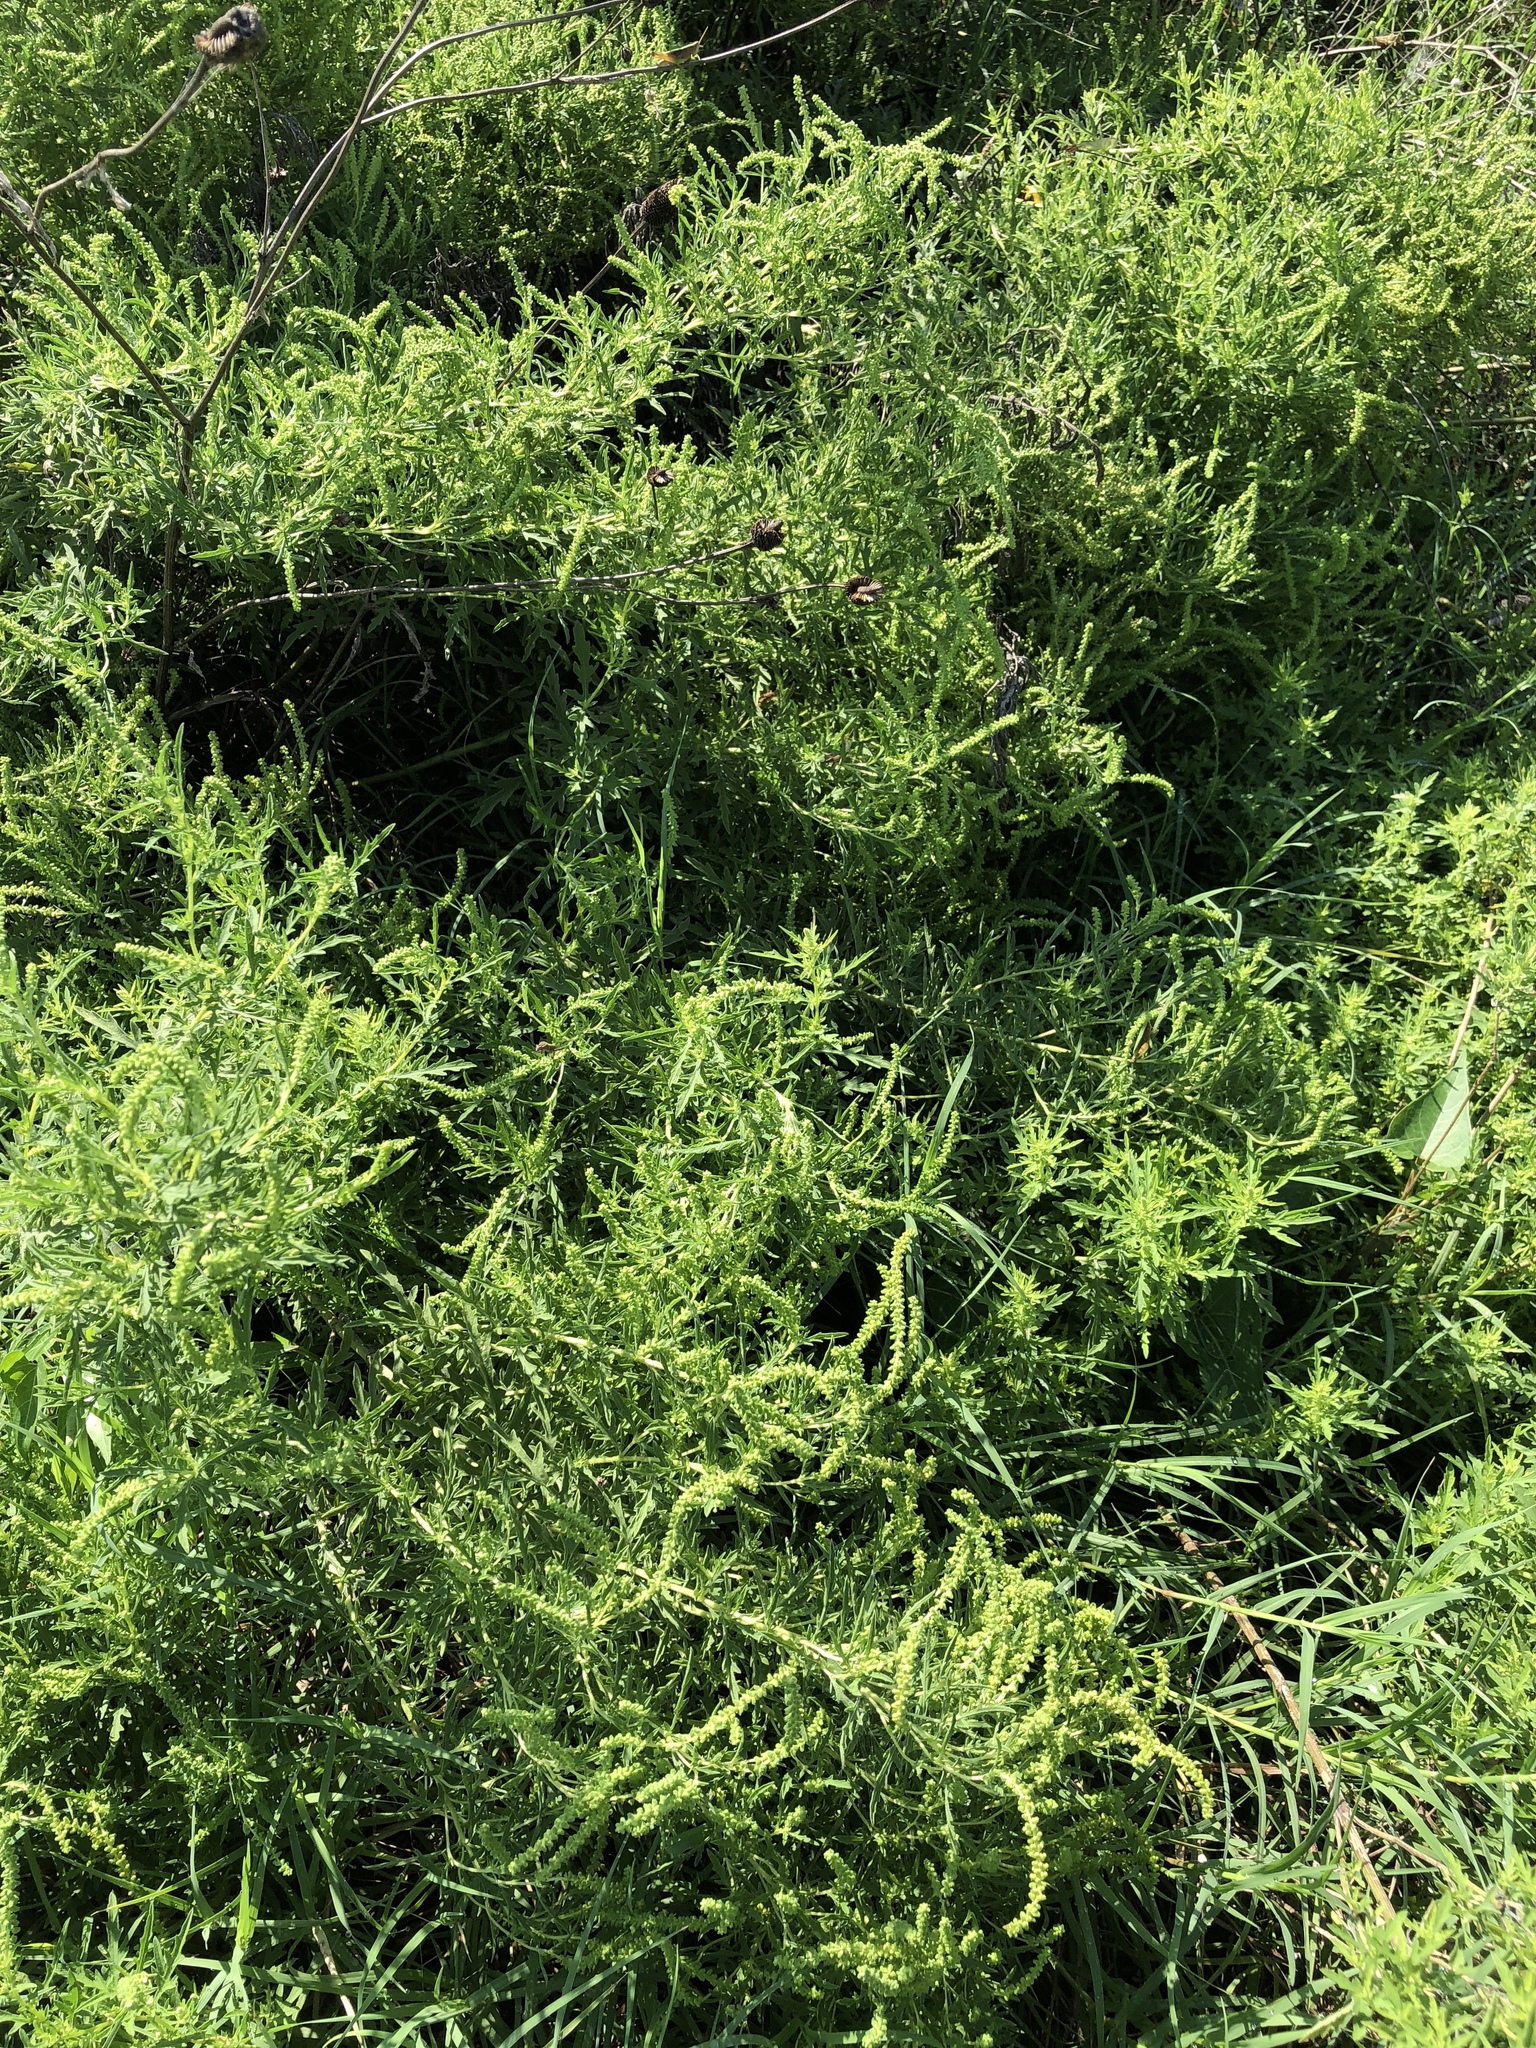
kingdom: Plantae
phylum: Tracheophyta
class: Magnoliopsida
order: Asterales
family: Asteraceae
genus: Ambrosia
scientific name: Ambrosia psilostachya
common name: Perennial ragweed
